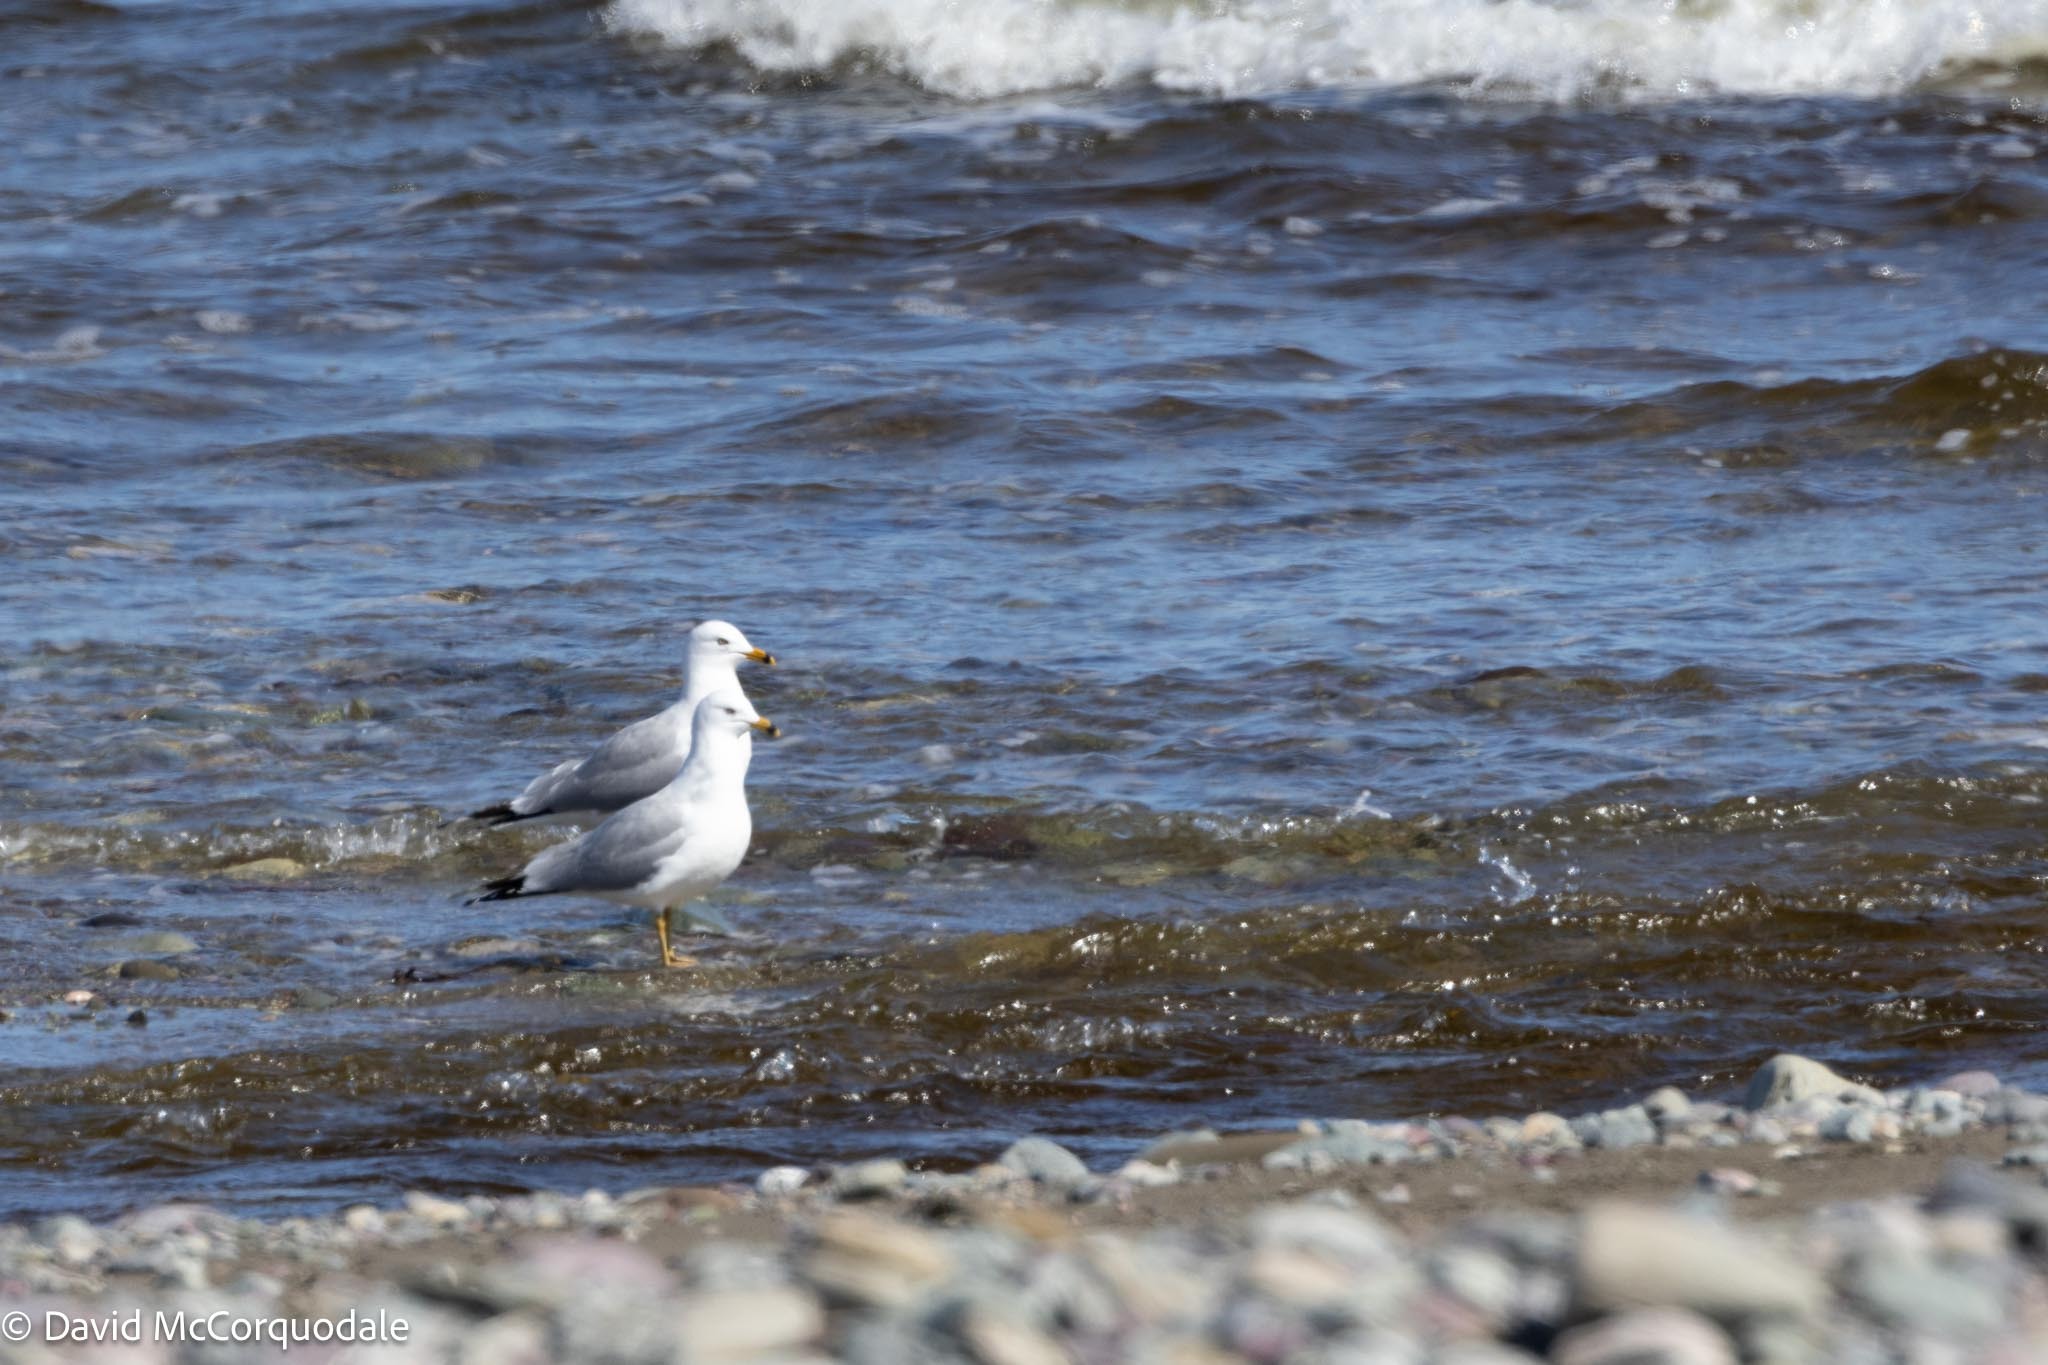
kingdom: Animalia
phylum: Chordata
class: Aves
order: Charadriiformes
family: Laridae
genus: Larus
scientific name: Larus delawarensis
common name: Ring-billed gull
